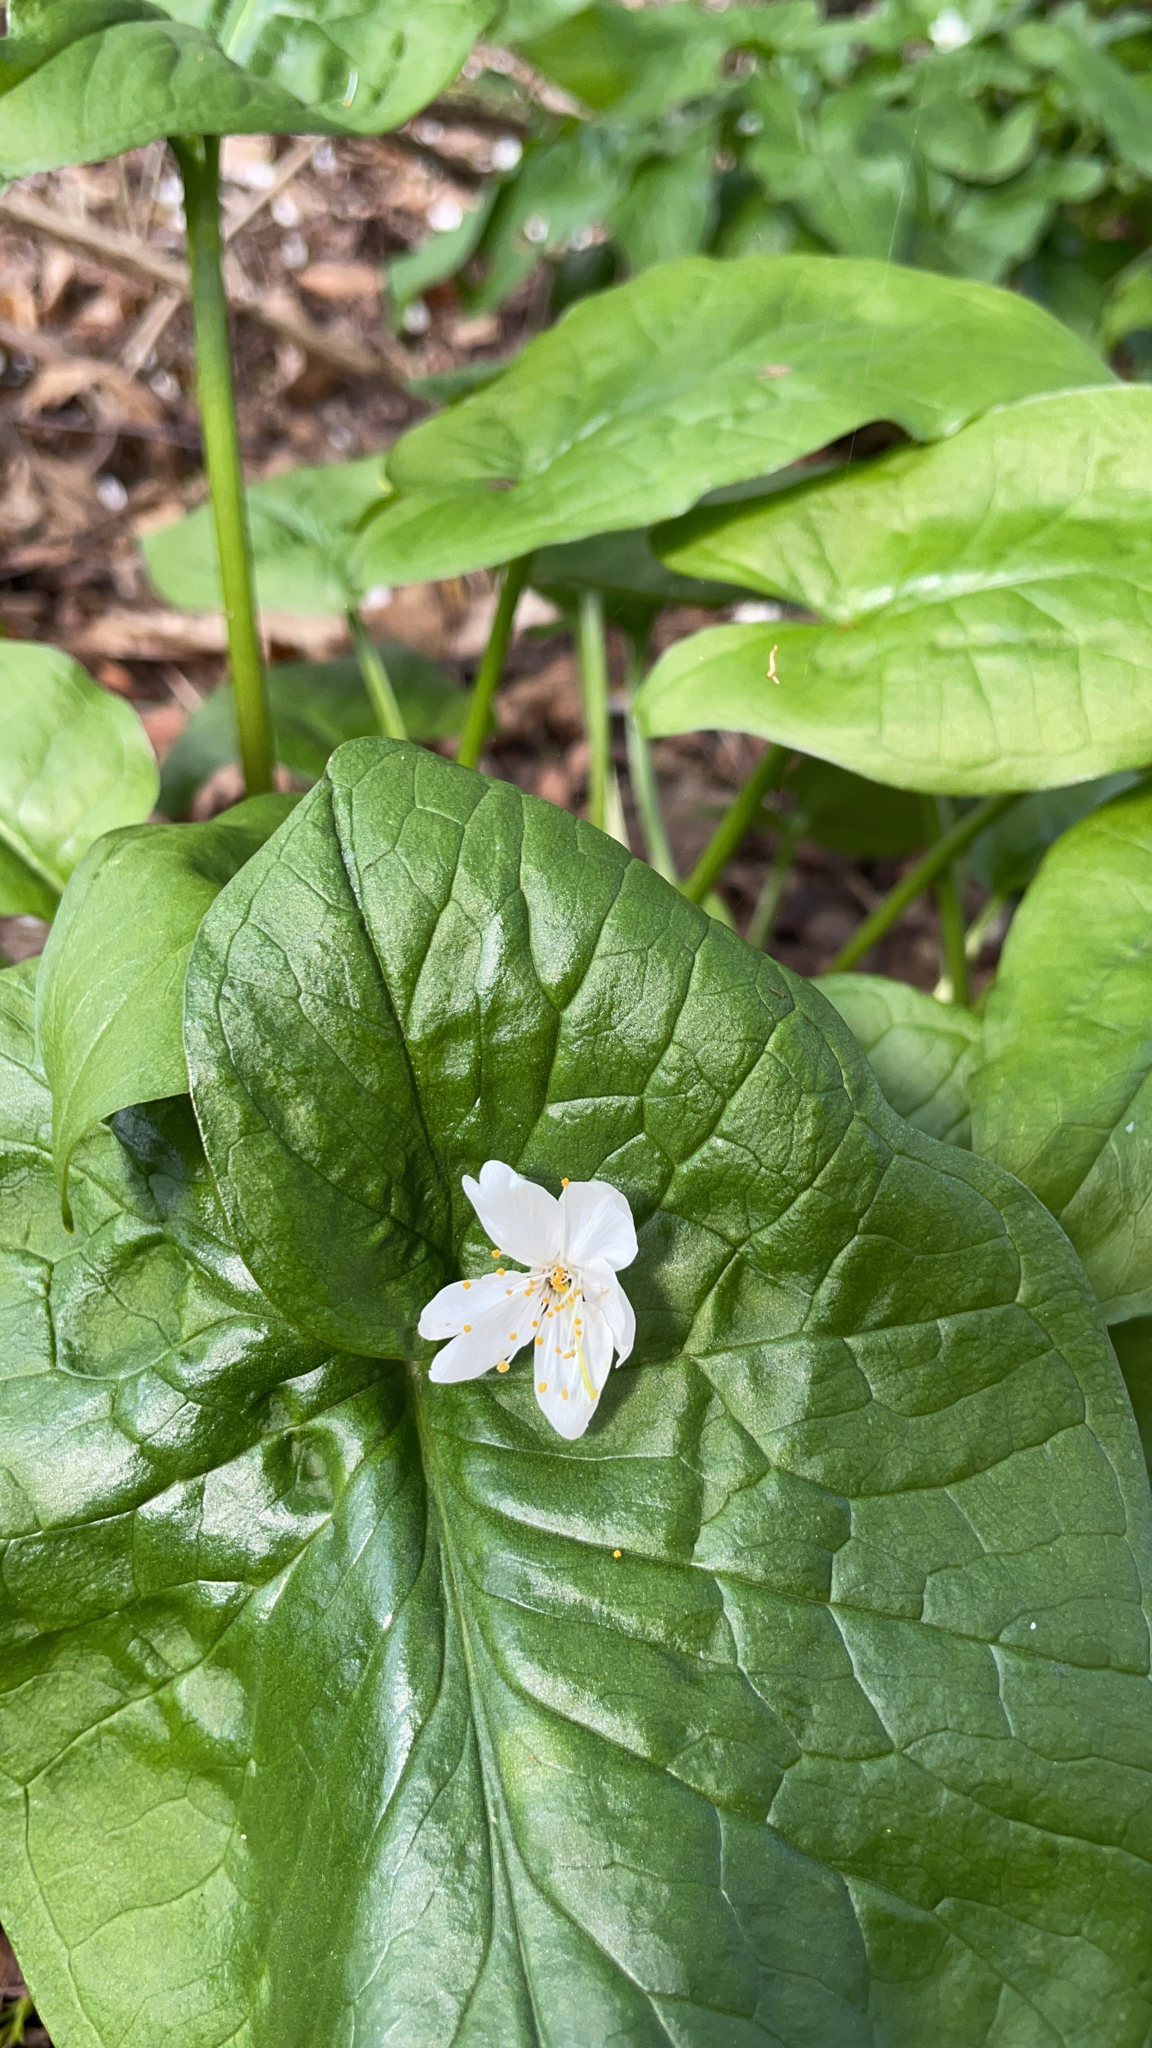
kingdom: Plantae
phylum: Tracheophyta
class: Liliopsida
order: Alismatales
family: Araceae
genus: Arum
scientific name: Arum maculatum
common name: Lords-and-ladies
